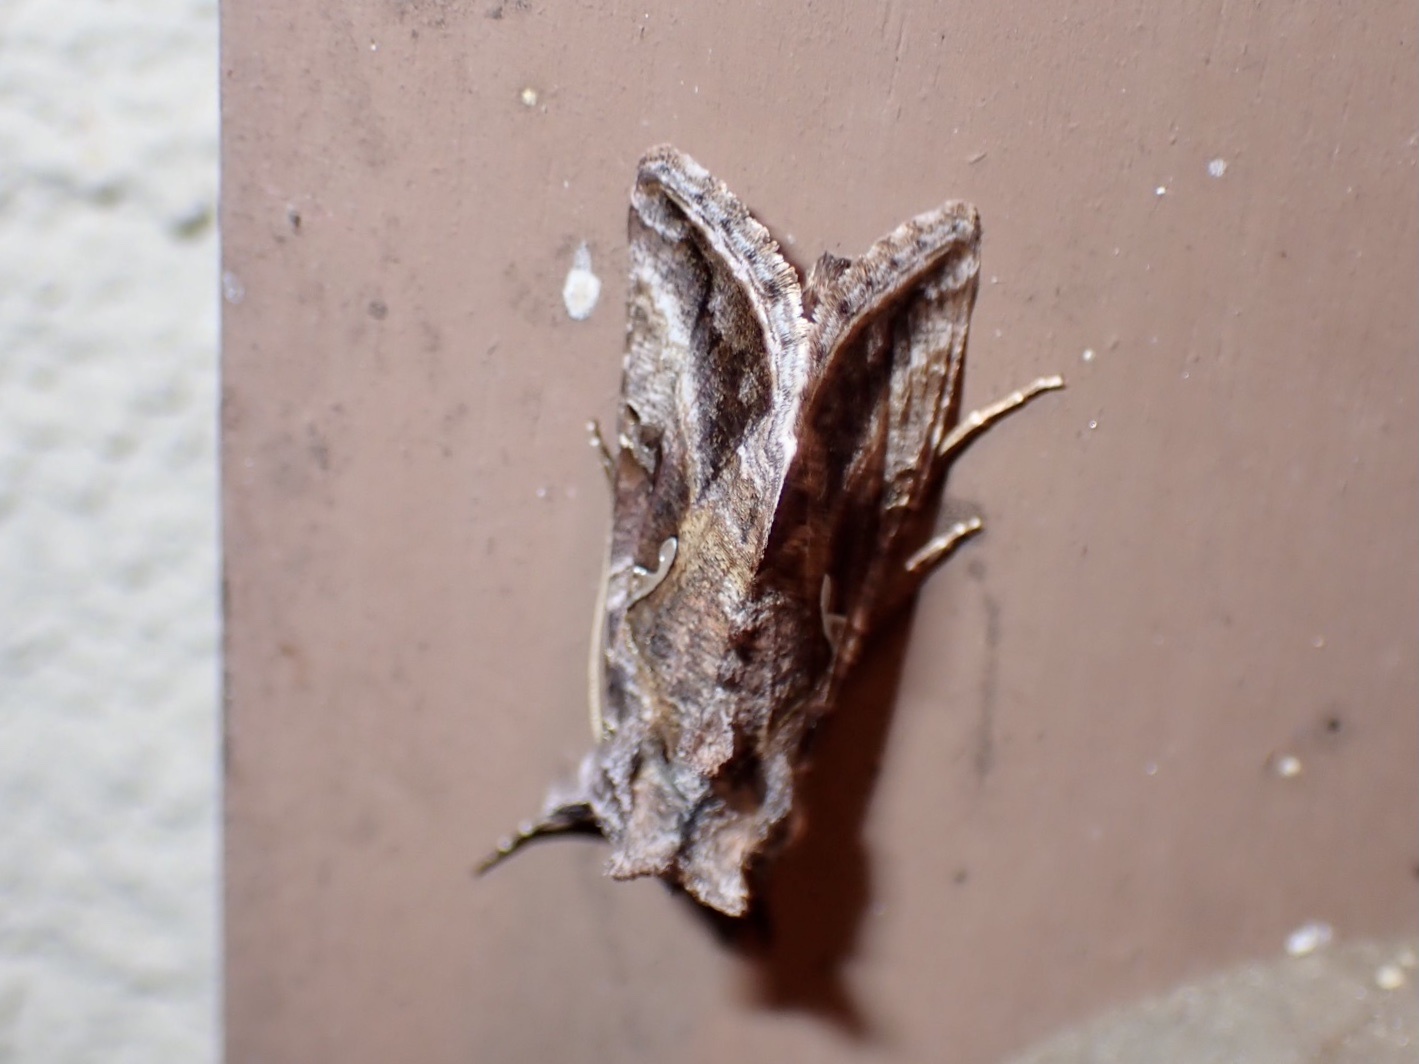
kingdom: Animalia
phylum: Arthropoda
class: Insecta
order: Lepidoptera
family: Noctuidae
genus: Autographa
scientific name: Autographa precationis
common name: Common looper moth
